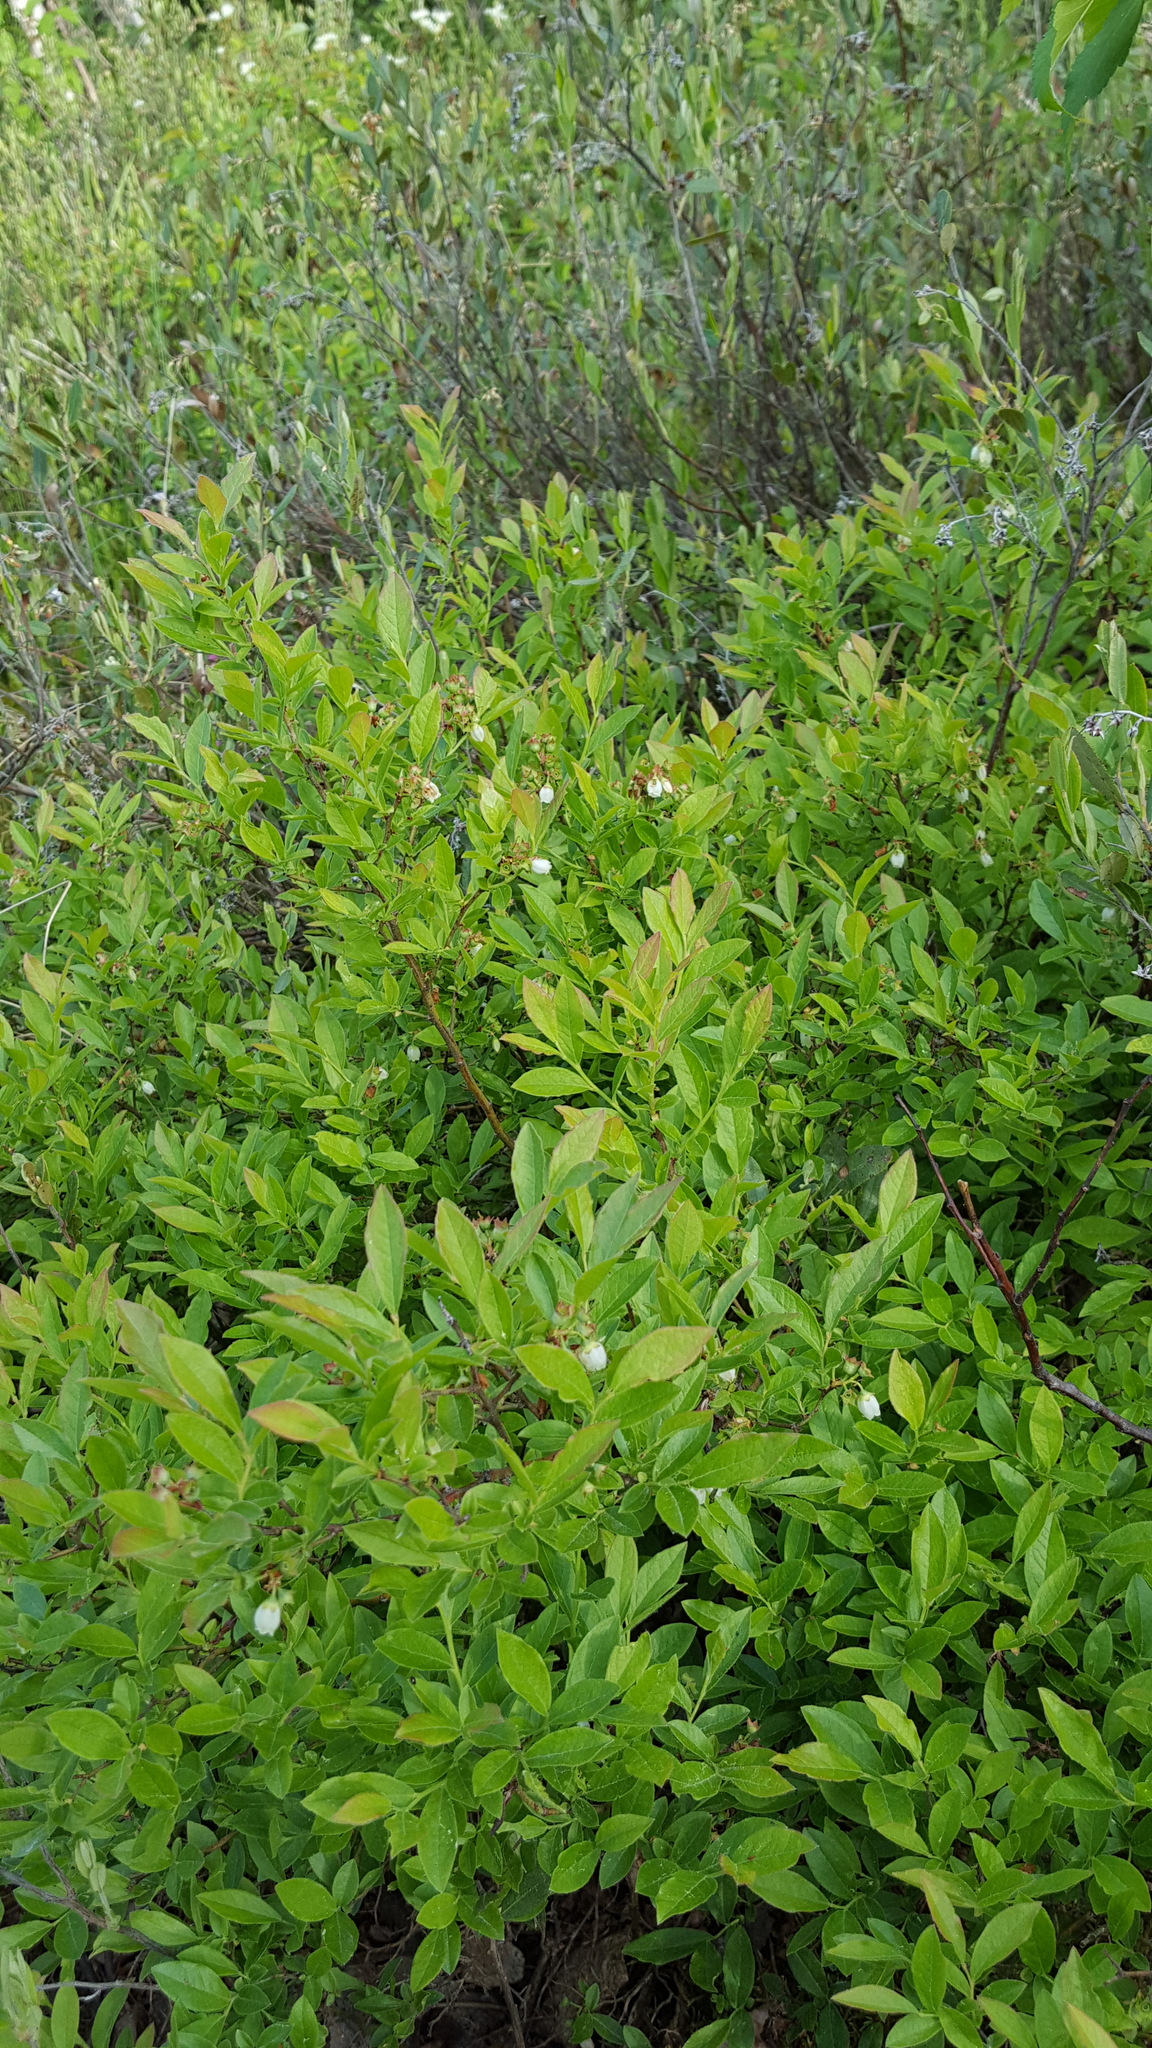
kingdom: Plantae
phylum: Tracheophyta
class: Magnoliopsida
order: Ericales
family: Ericaceae
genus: Vaccinium
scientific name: Vaccinium myrtilloides
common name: Canada blueberry
